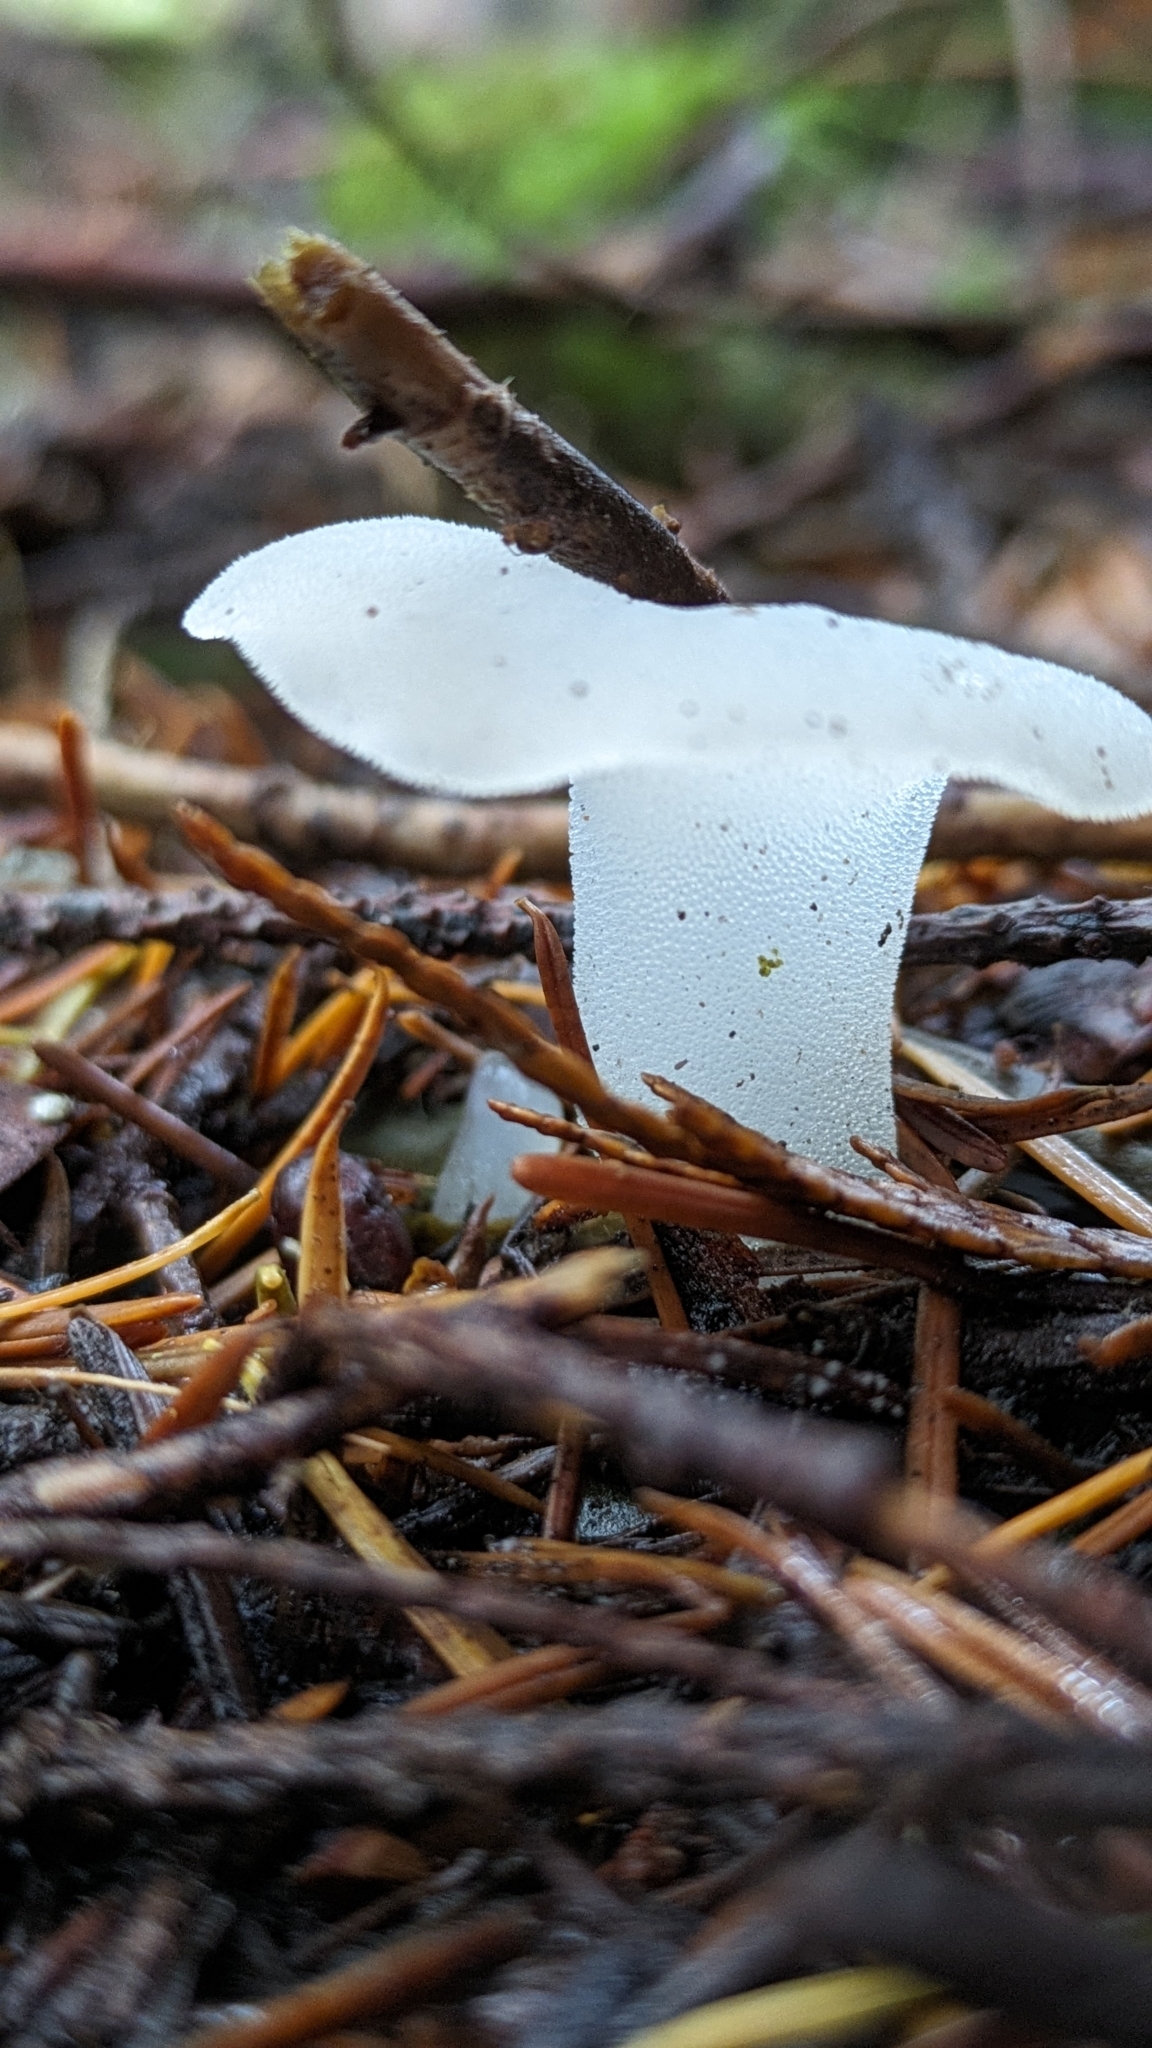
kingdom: Fungi
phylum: Basidiomycota
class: Agaricomycetes
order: Auriculariales
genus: Pseudohydnum
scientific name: Pseudohydnum gelatinosum
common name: Jelly tongue
